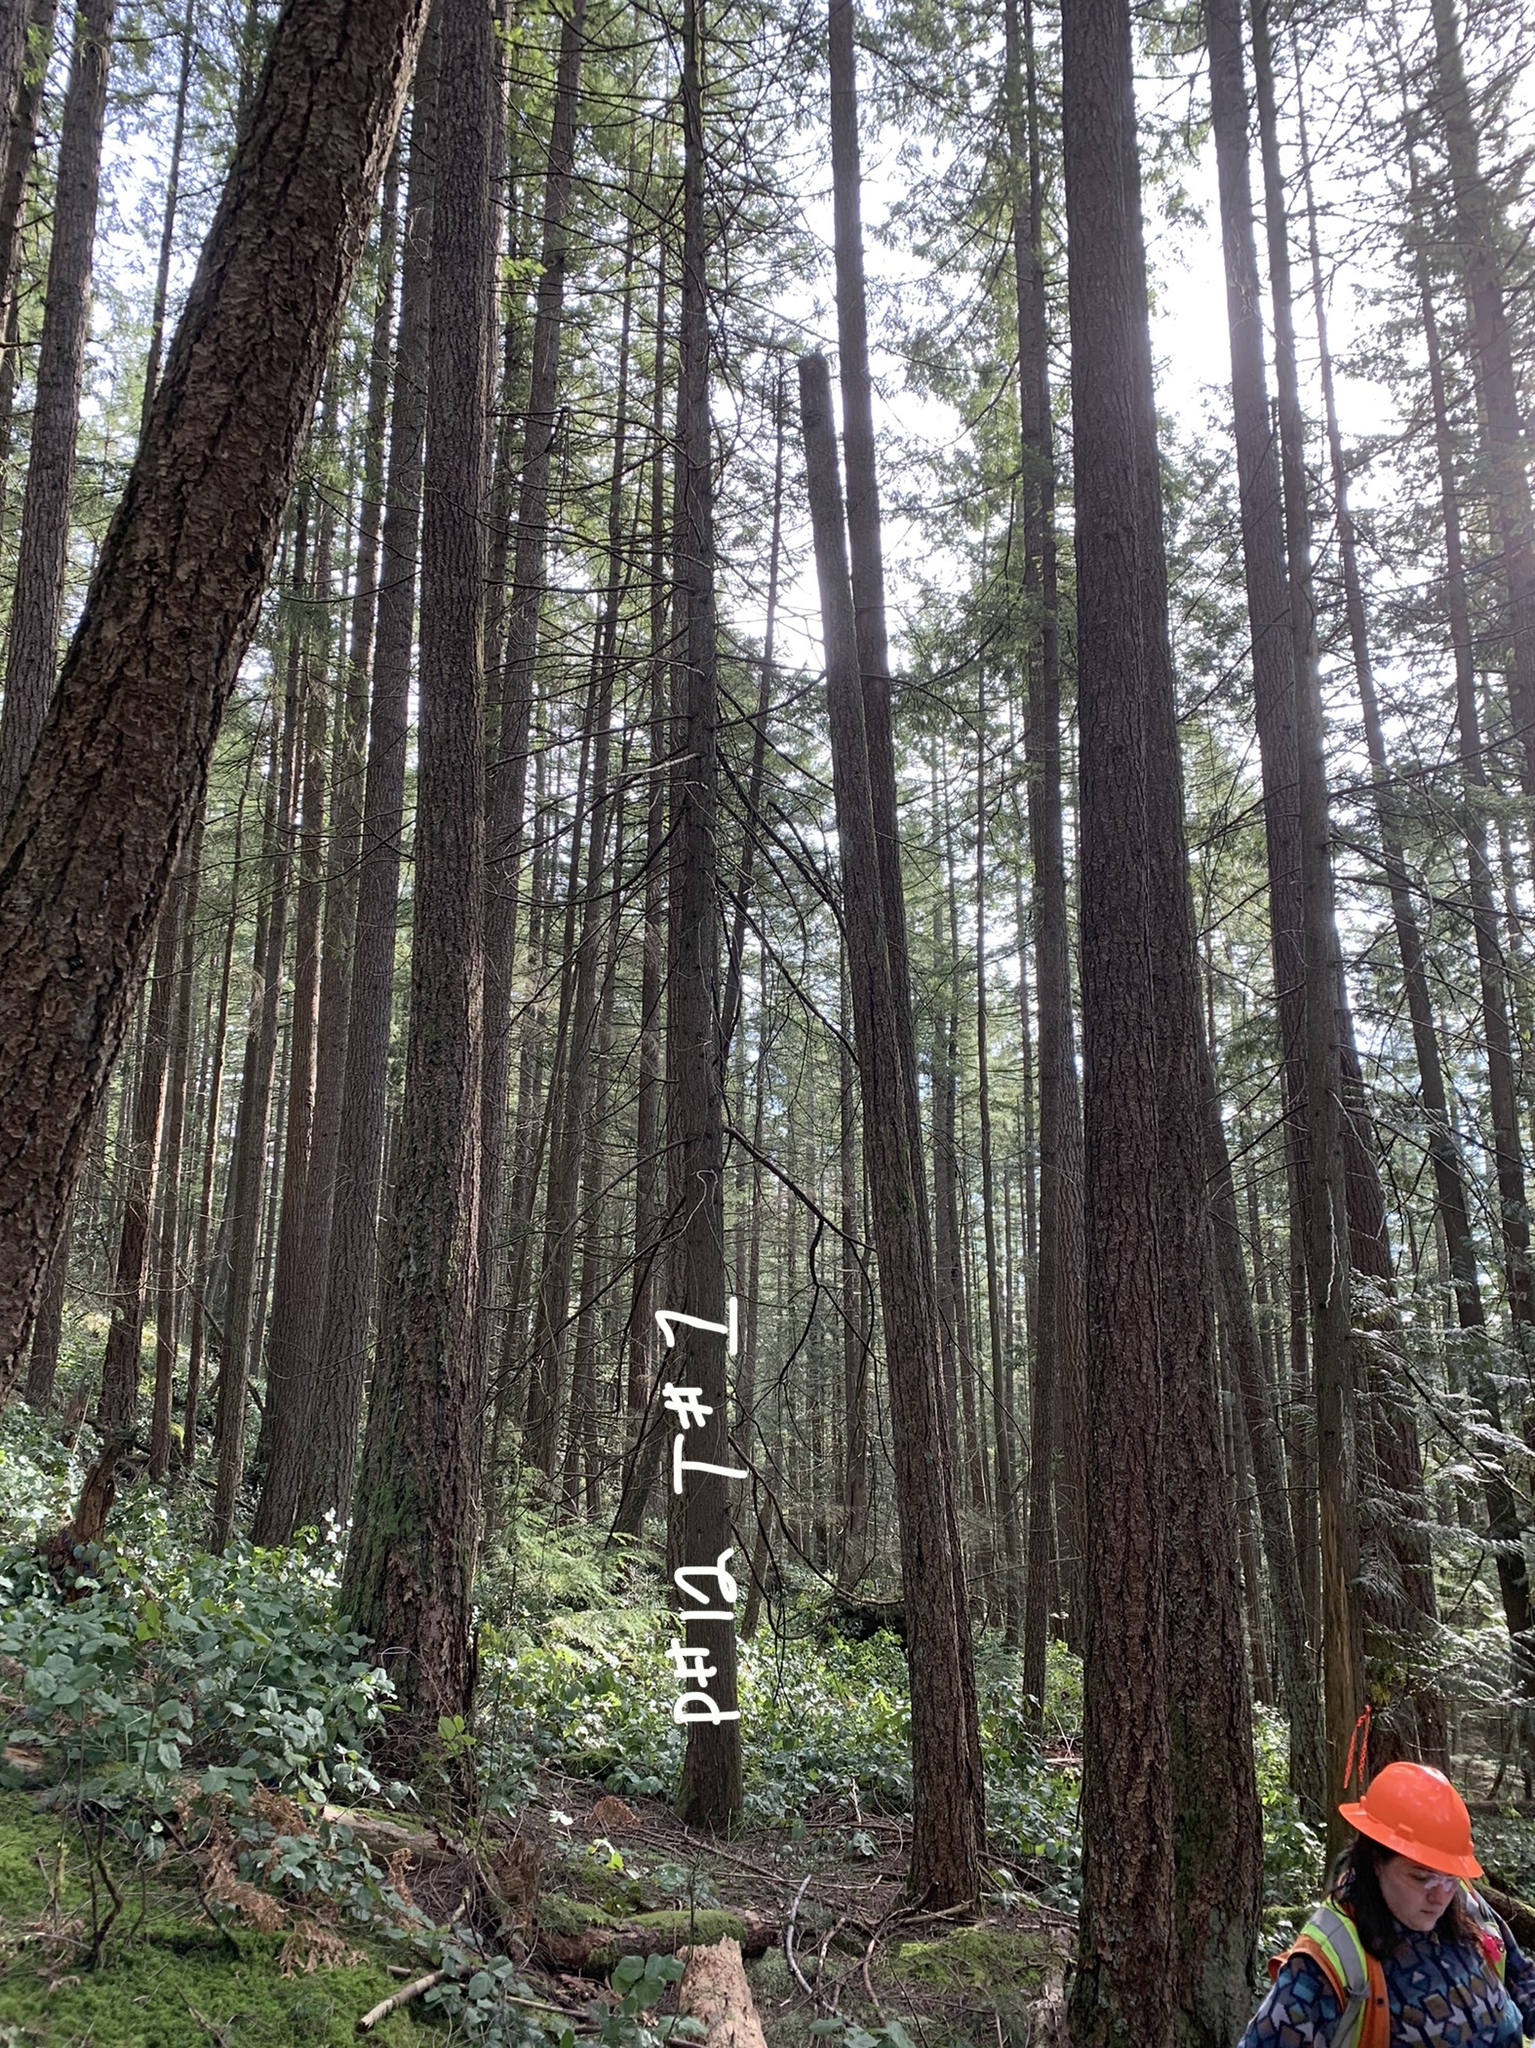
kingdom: Plantae
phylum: Tracheophyta
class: Pinopsida
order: Pinales
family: Cupressaceae
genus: Thuja
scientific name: Thuja plicata
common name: Western red-cedar
